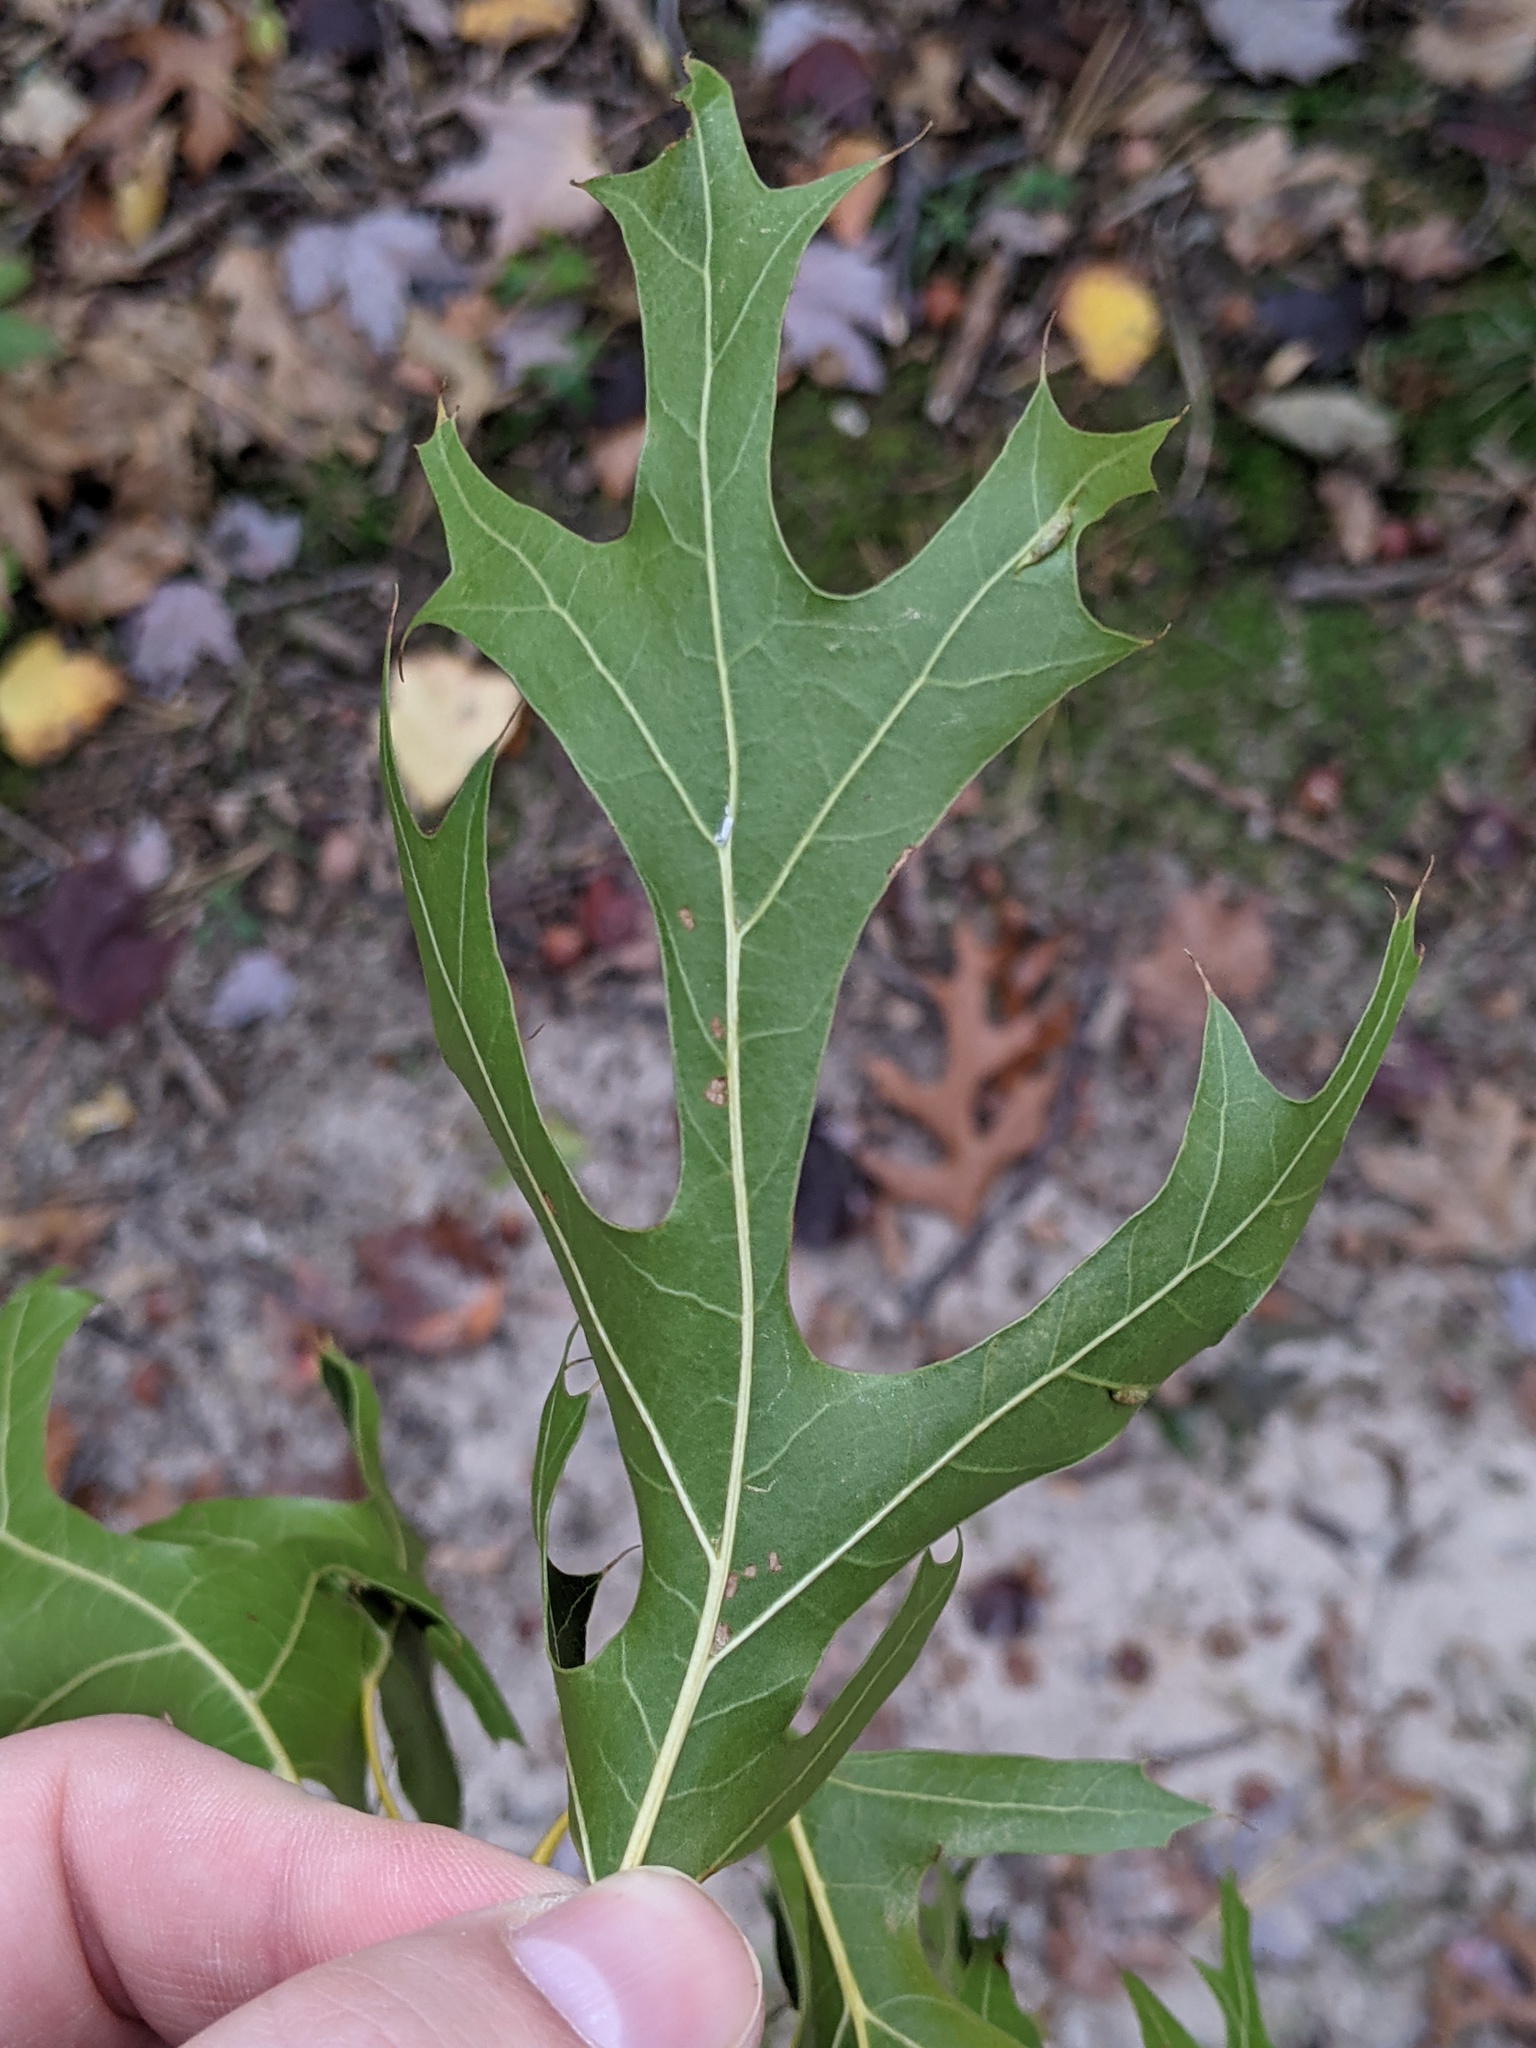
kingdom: Plantae
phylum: Tracheophyta
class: Magnoliopsida
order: Fagales
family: Fagaceae
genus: Quercus
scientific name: Quercus velutina
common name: Black oak
